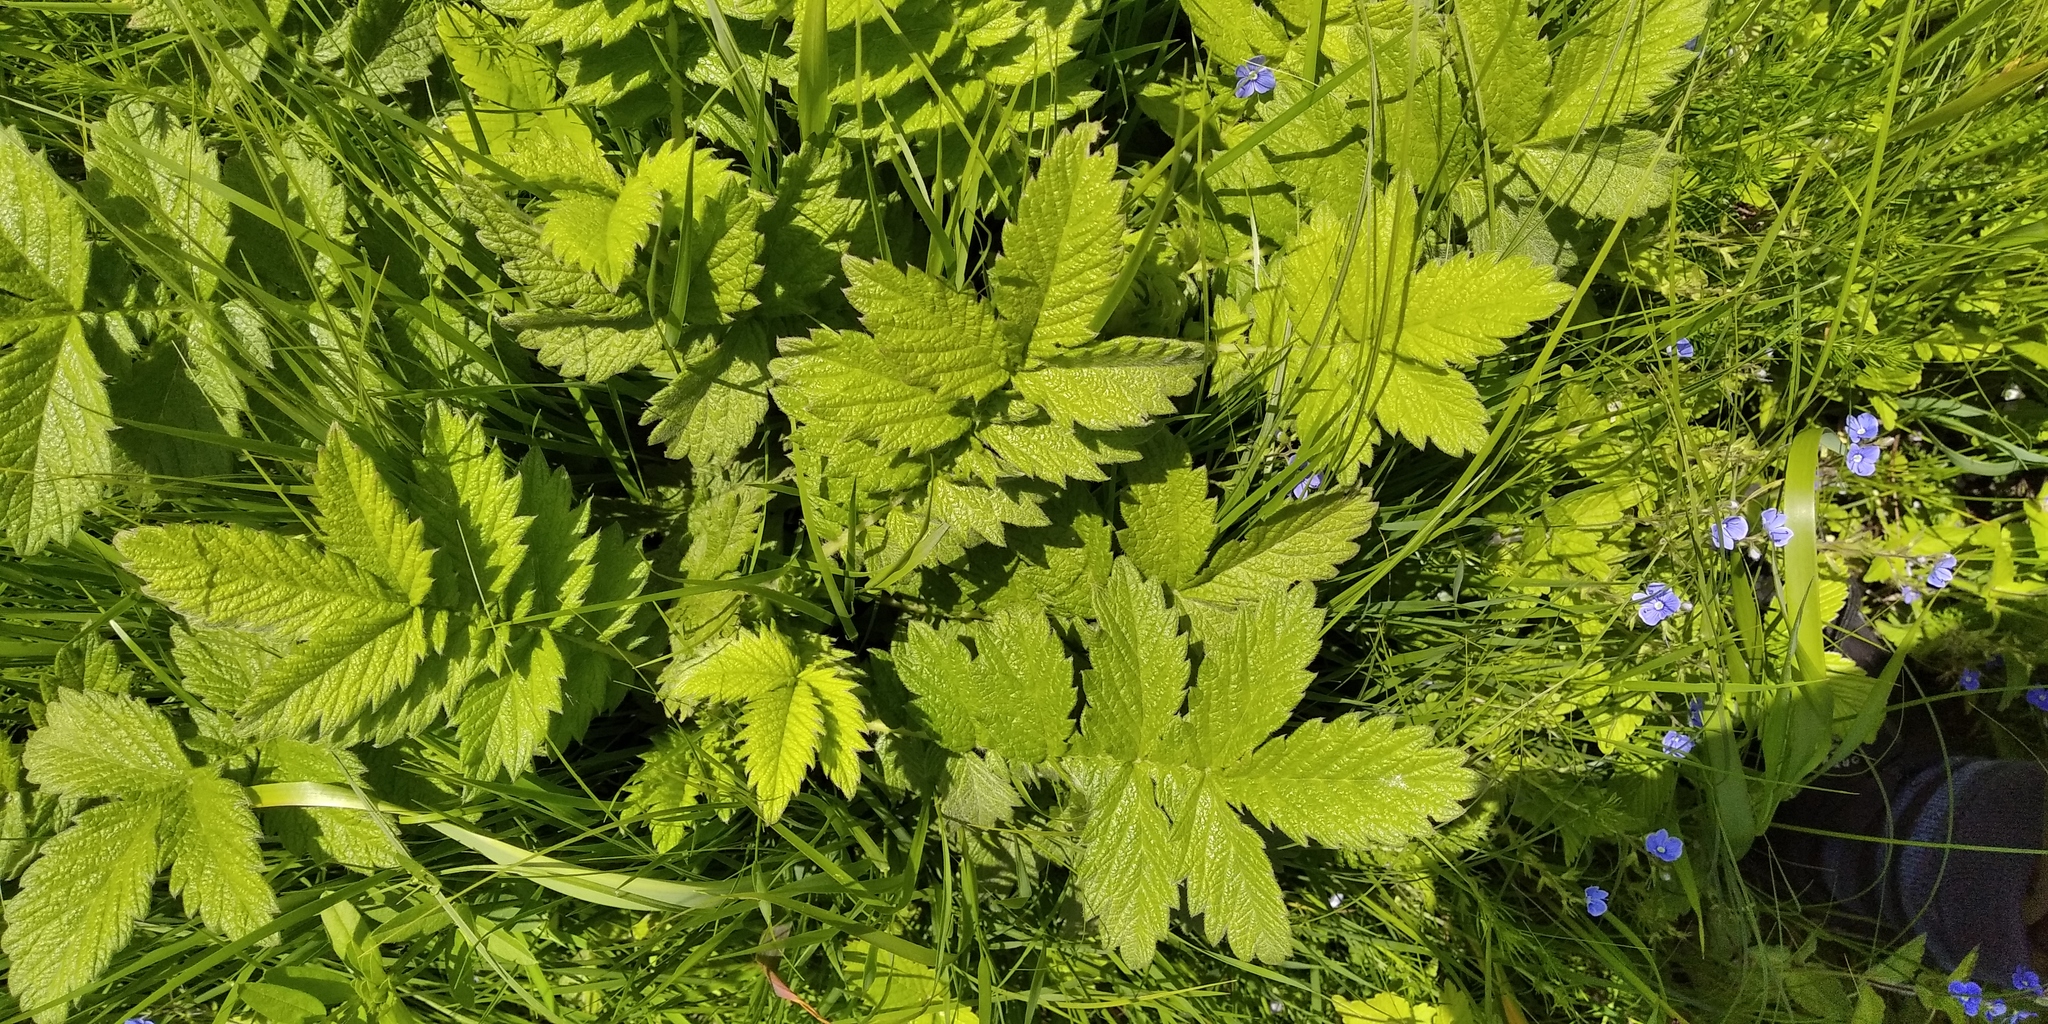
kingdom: Plantae
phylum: Tracheophyta
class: Magnoliopsida
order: Rosales
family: Rosaceae
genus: Agrimonia
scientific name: Agrimonia eupatoria
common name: Agrimony
